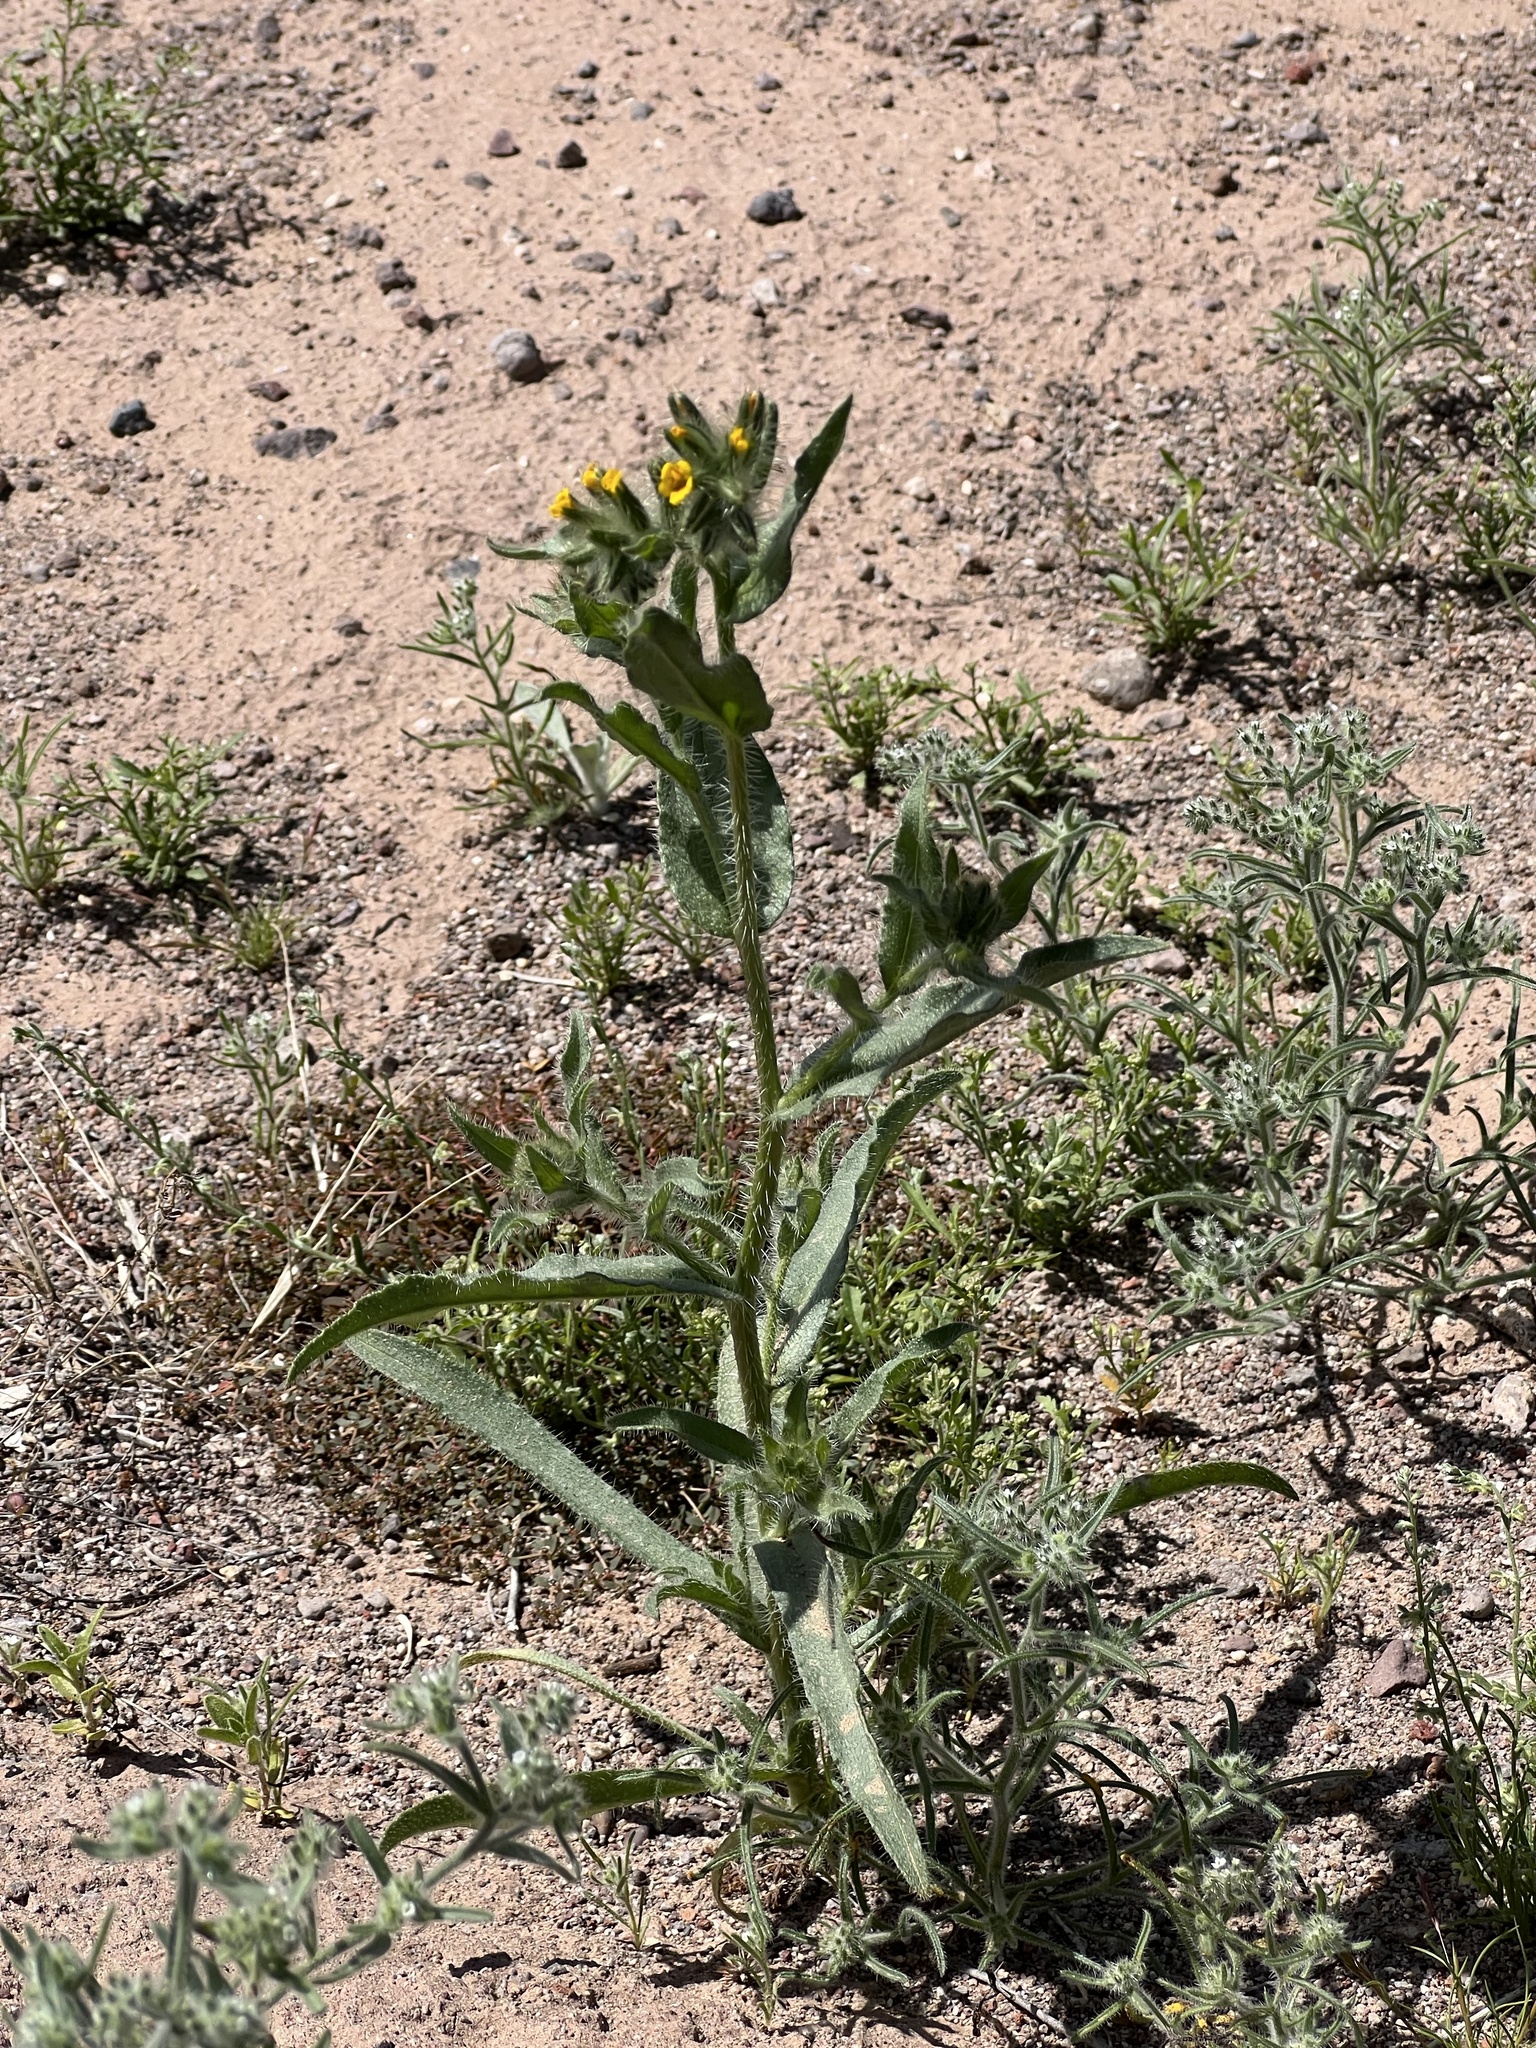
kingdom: Plantae
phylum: Tracheophyta
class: Magnoliopsida
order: Boraginales
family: Boraginaceae
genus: Amsinckia
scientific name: Amsinckia tessellata
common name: Tessellate fiddleneck
